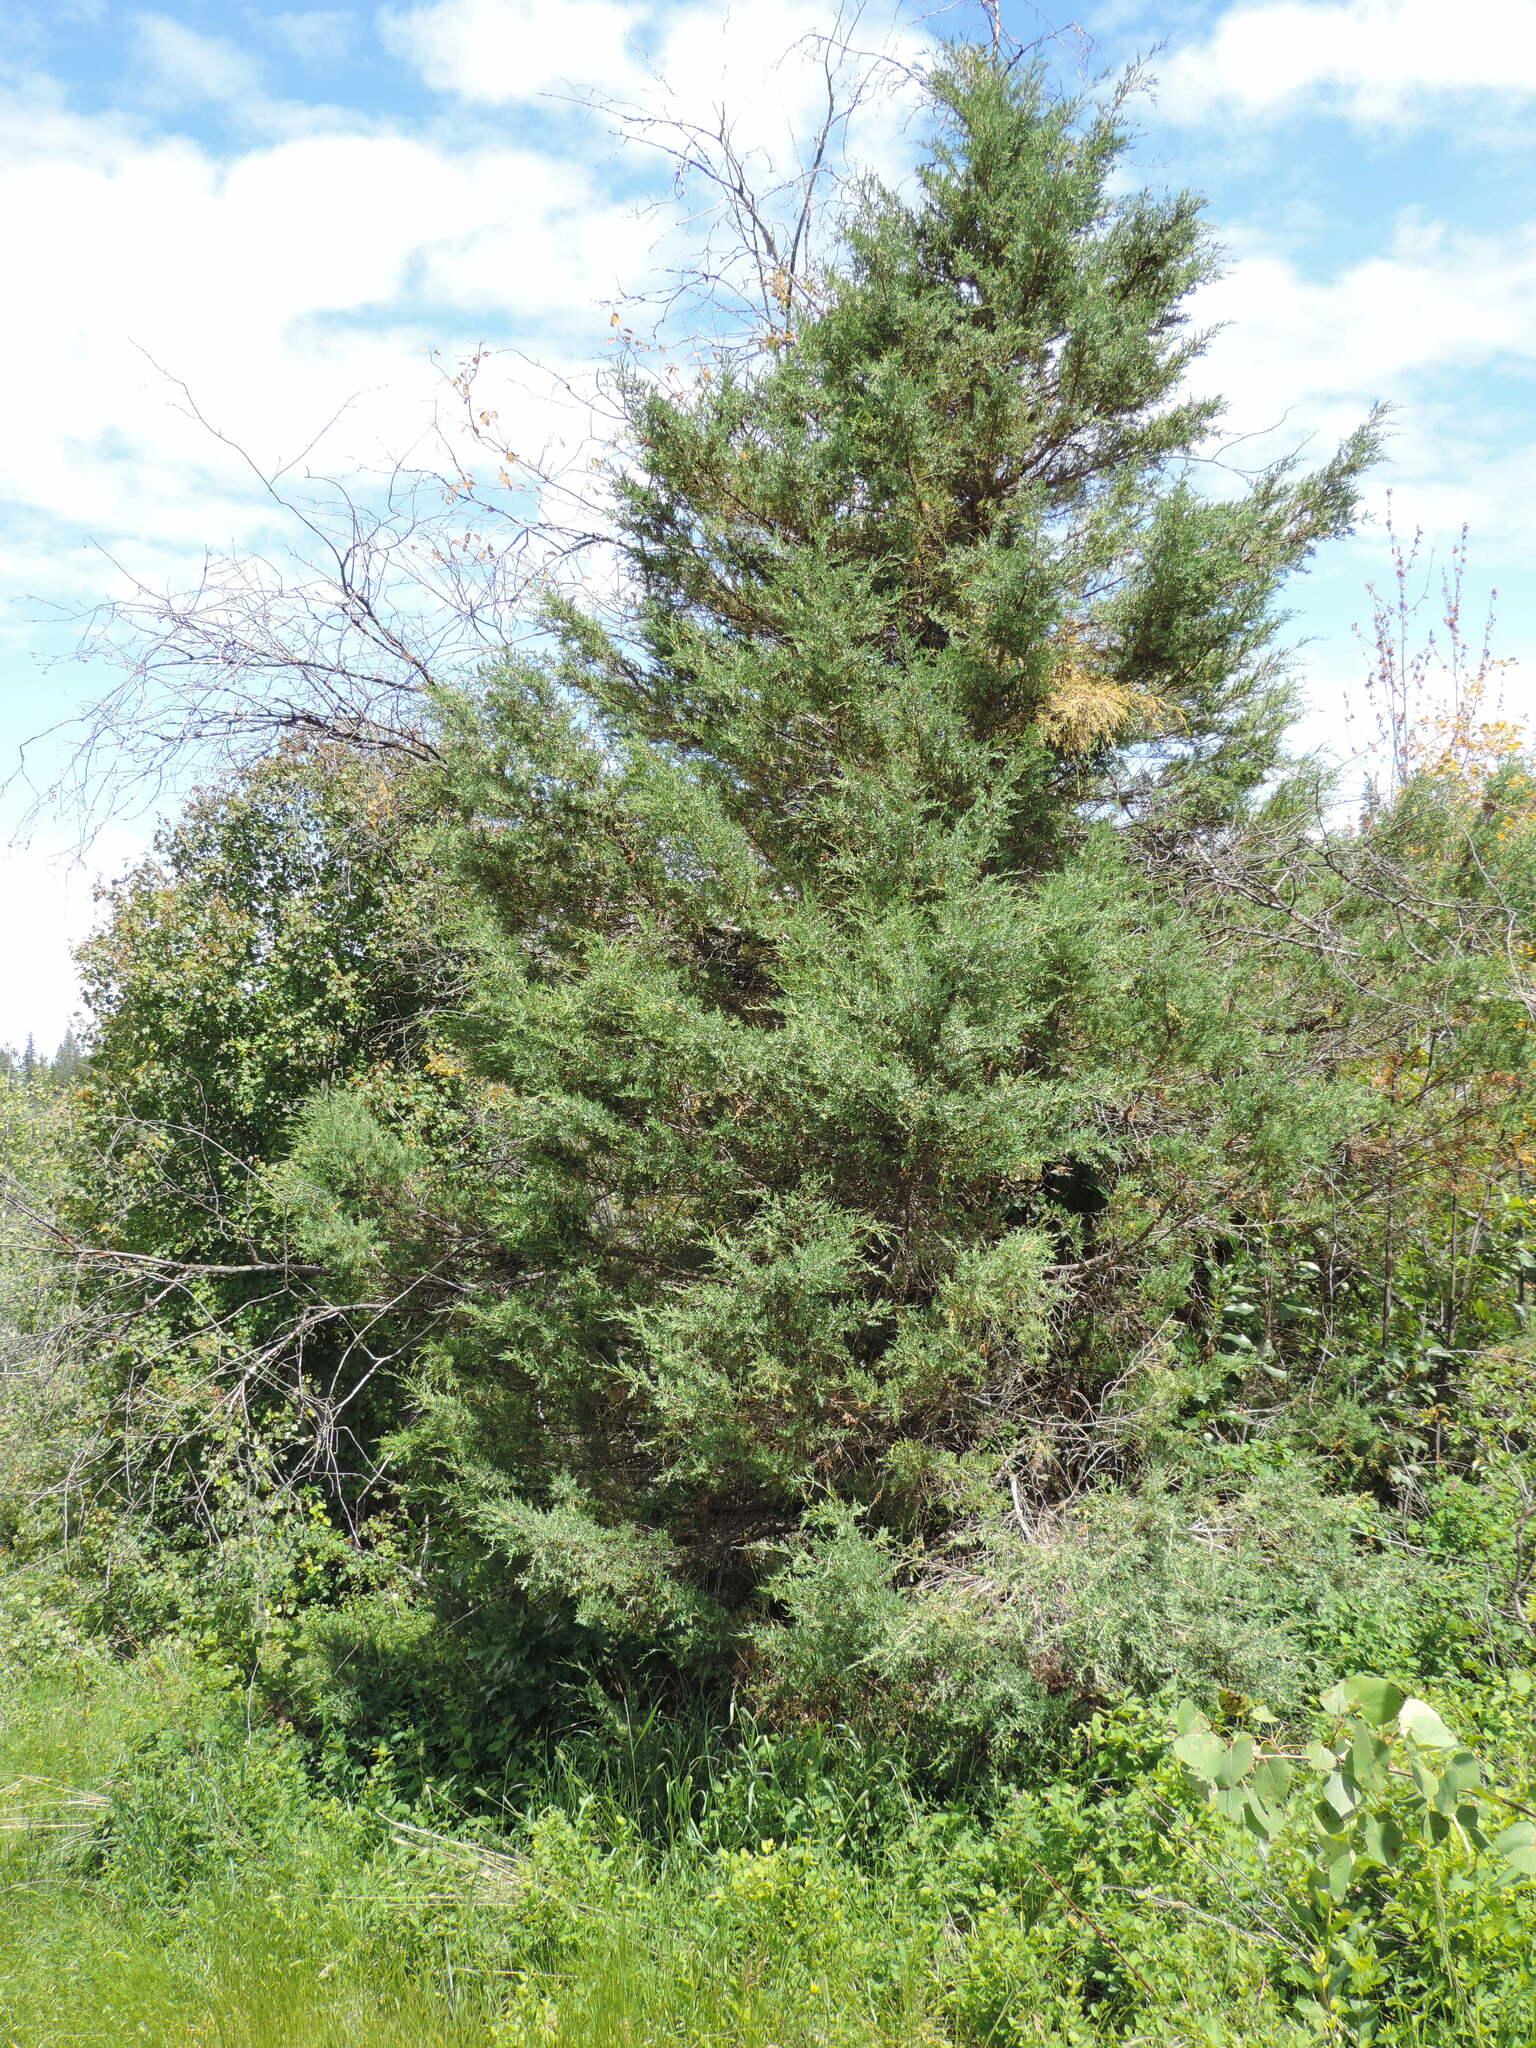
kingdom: Plantae
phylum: Tracheophyta
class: Pinopsida
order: Pinales
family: Cupressaceae
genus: Juniperus
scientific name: Juniperus scopulorum
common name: Rocky mountain juniper
